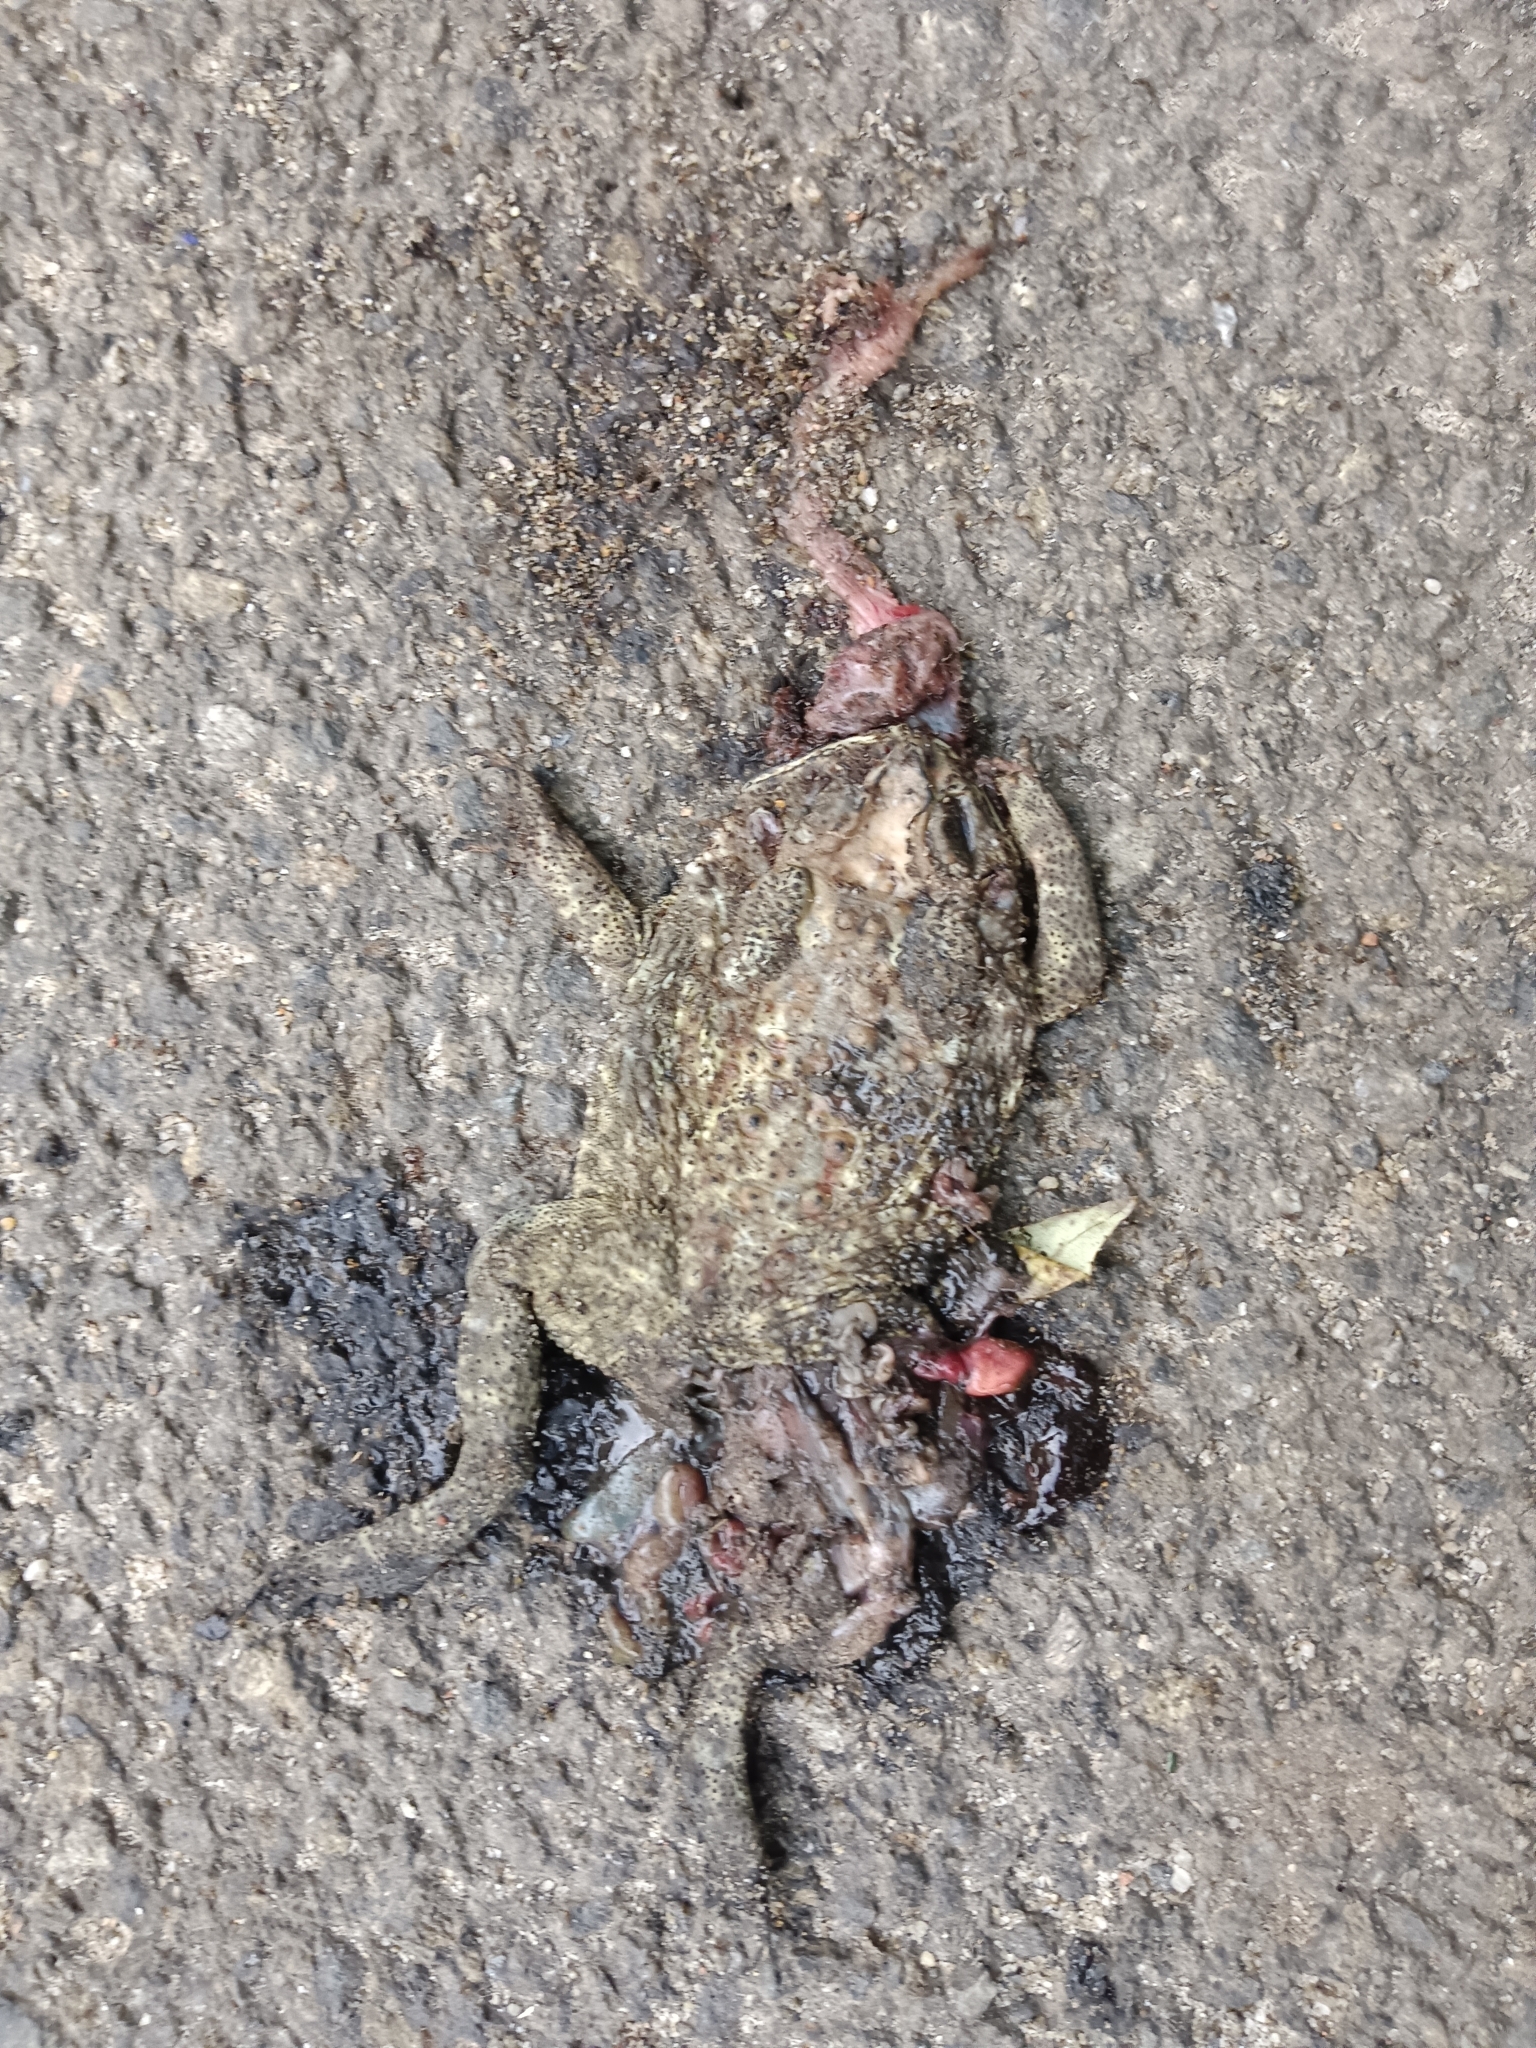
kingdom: Animalia
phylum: Chordata
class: Amphibia
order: Anura
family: Bufonidae
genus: Duttaphrynus
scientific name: Duttaphrynus melanostictus
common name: Common sunda toad
